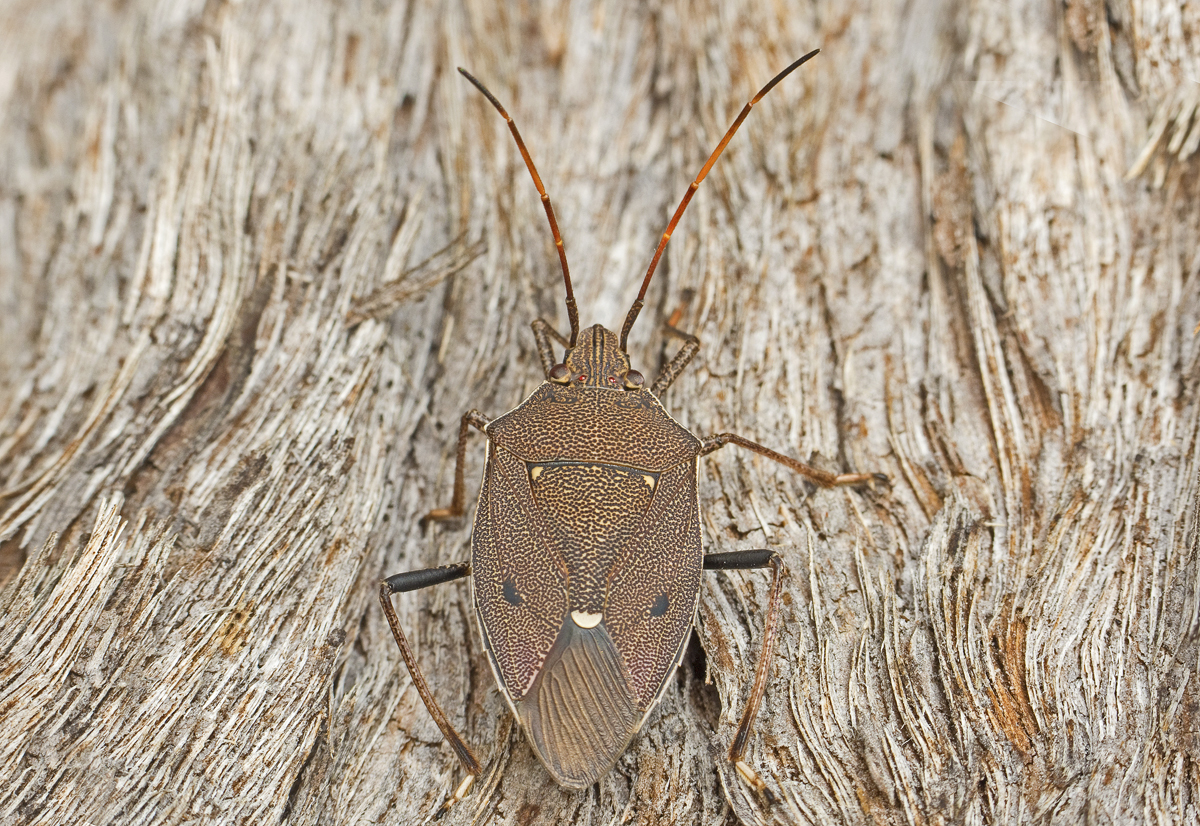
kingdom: Animalia
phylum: Arthropoda
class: Insecta
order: Hemiptera
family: Pentatomidae
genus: Poecilometis
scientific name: Poecilometis
